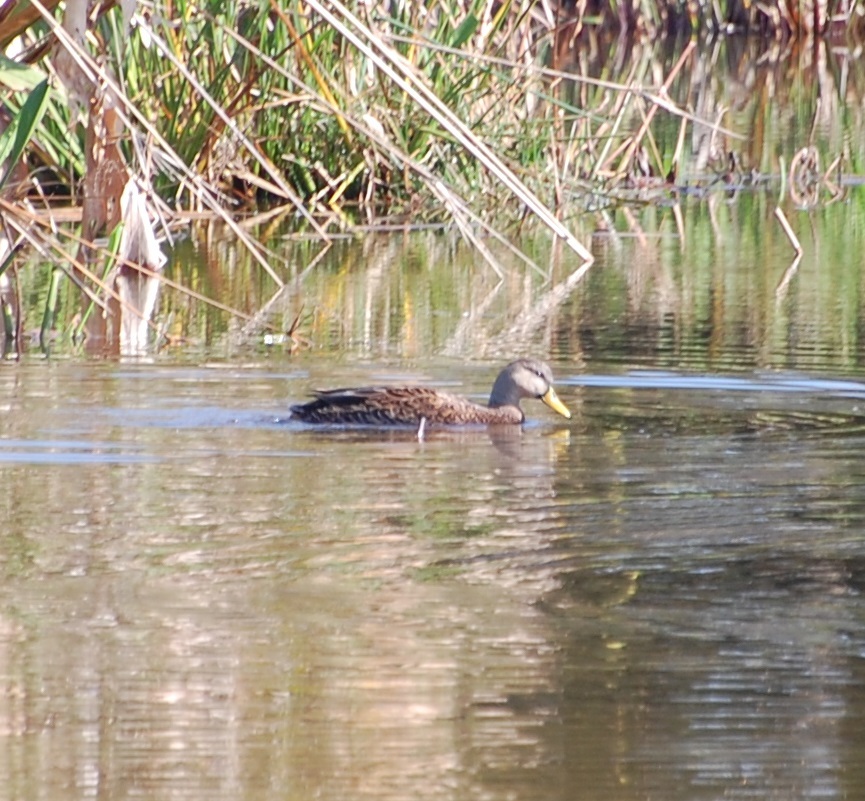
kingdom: Animalia
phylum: Chordata
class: Aves
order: Anseriformes
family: Anatidae
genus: Anas
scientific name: Anas fulvigula
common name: Mottled duck
